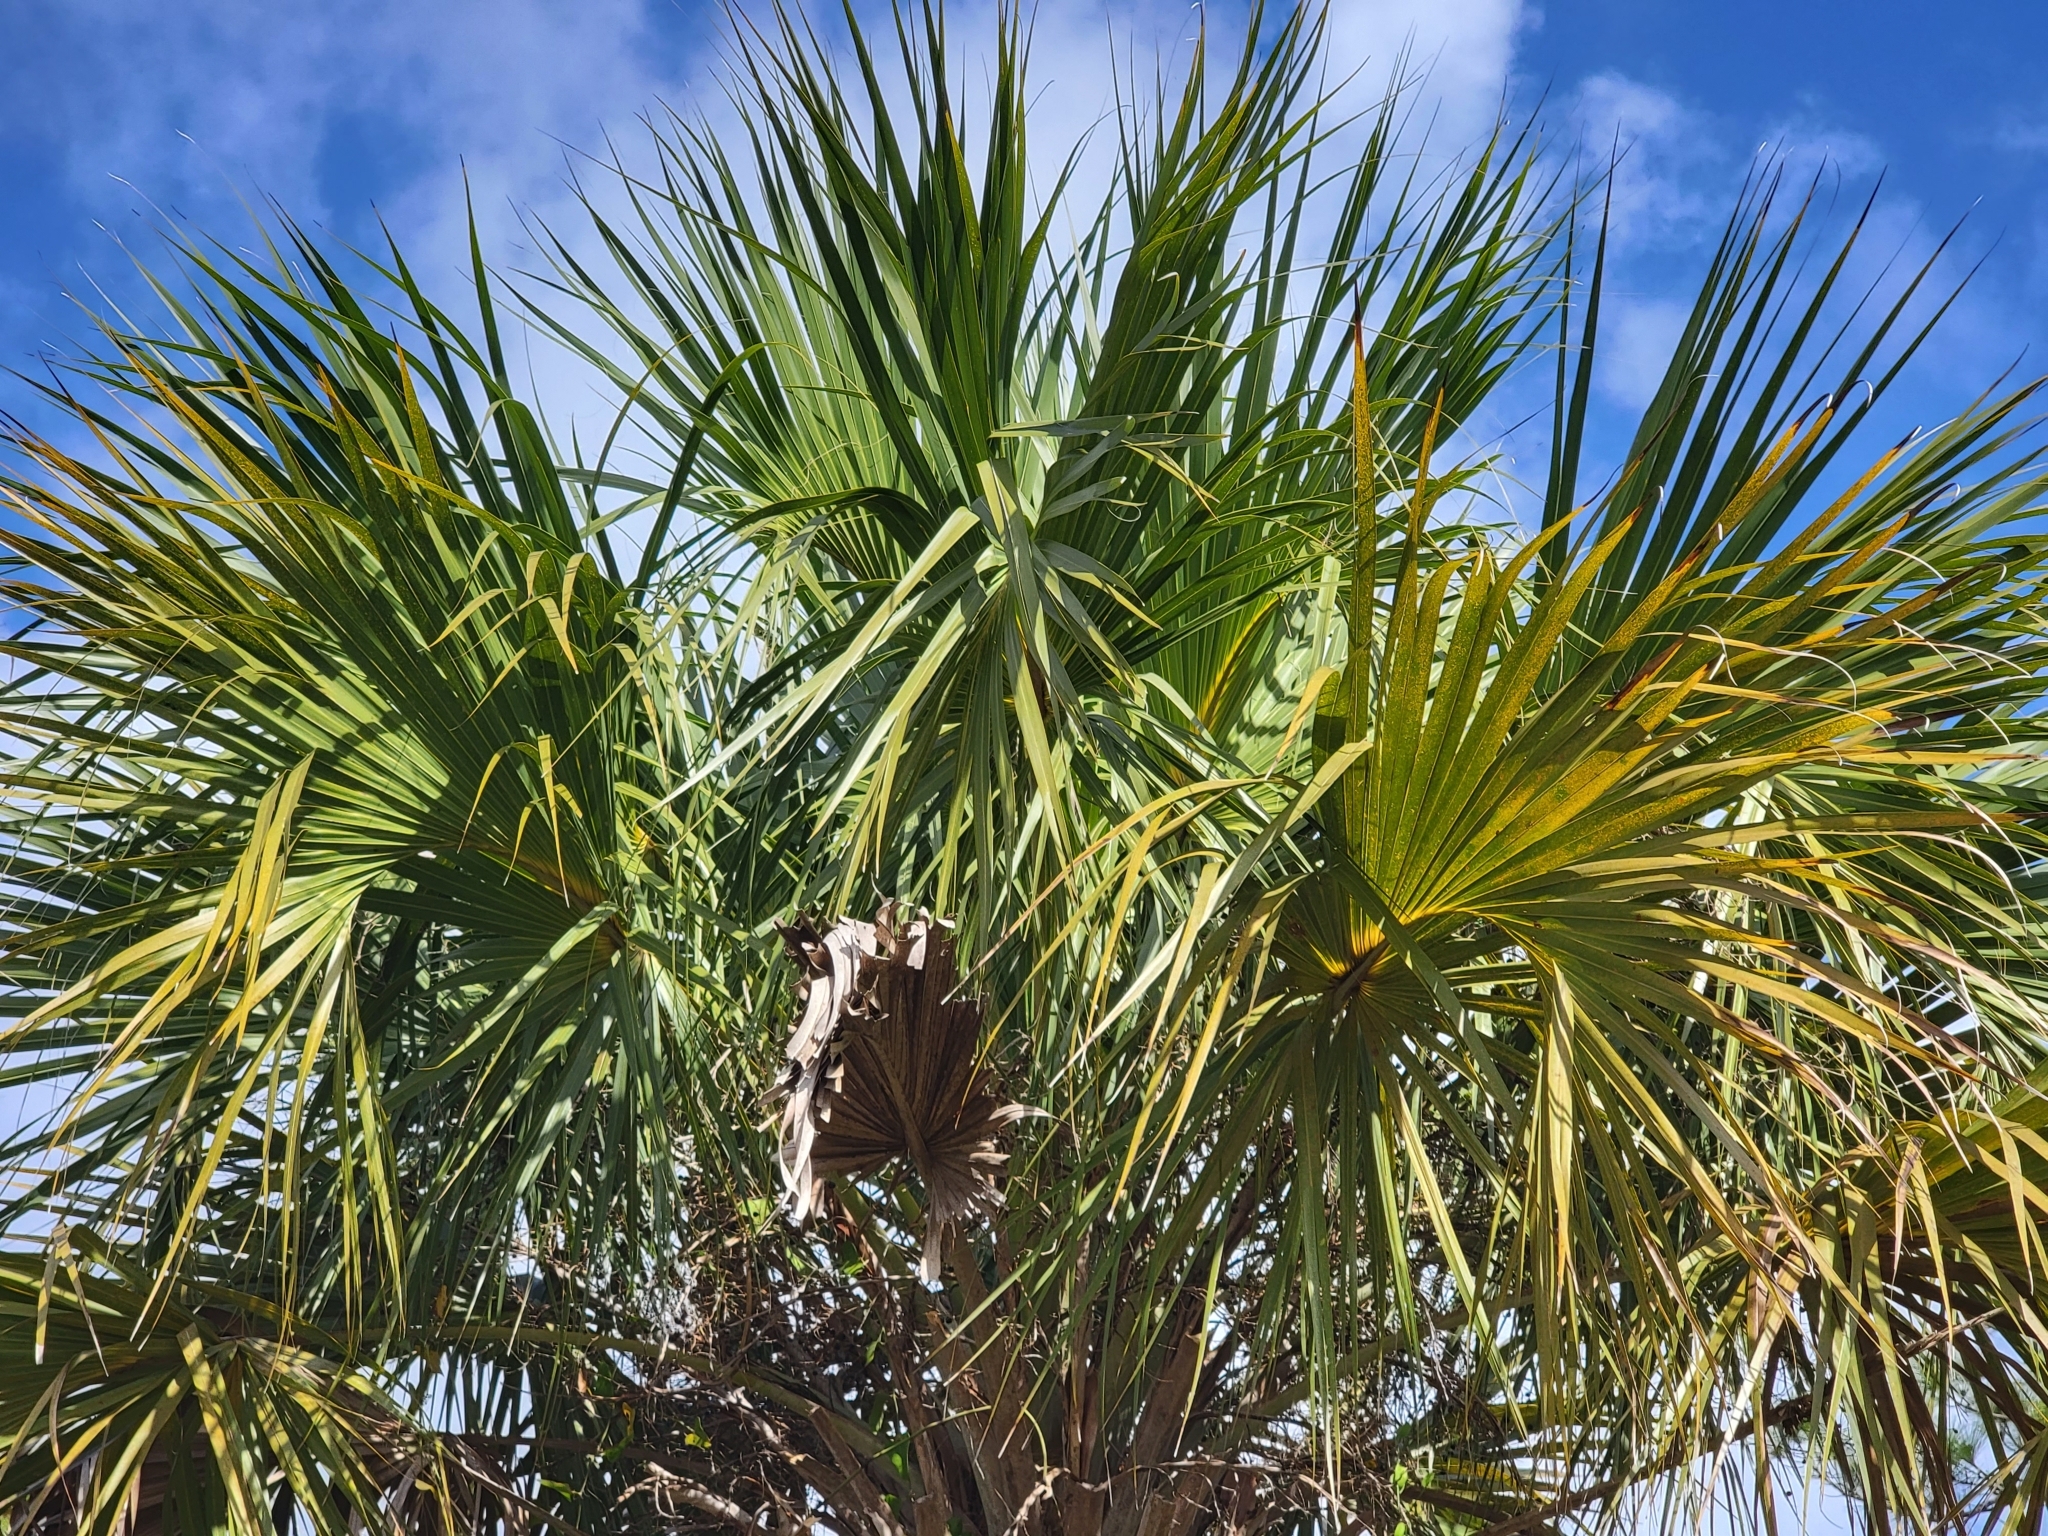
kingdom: Plantae
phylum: Tracheophyta
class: Liliopsida
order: Arecales
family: Arecaceae
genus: Sabal
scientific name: Sabal palmetto
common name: Blue palmetto
